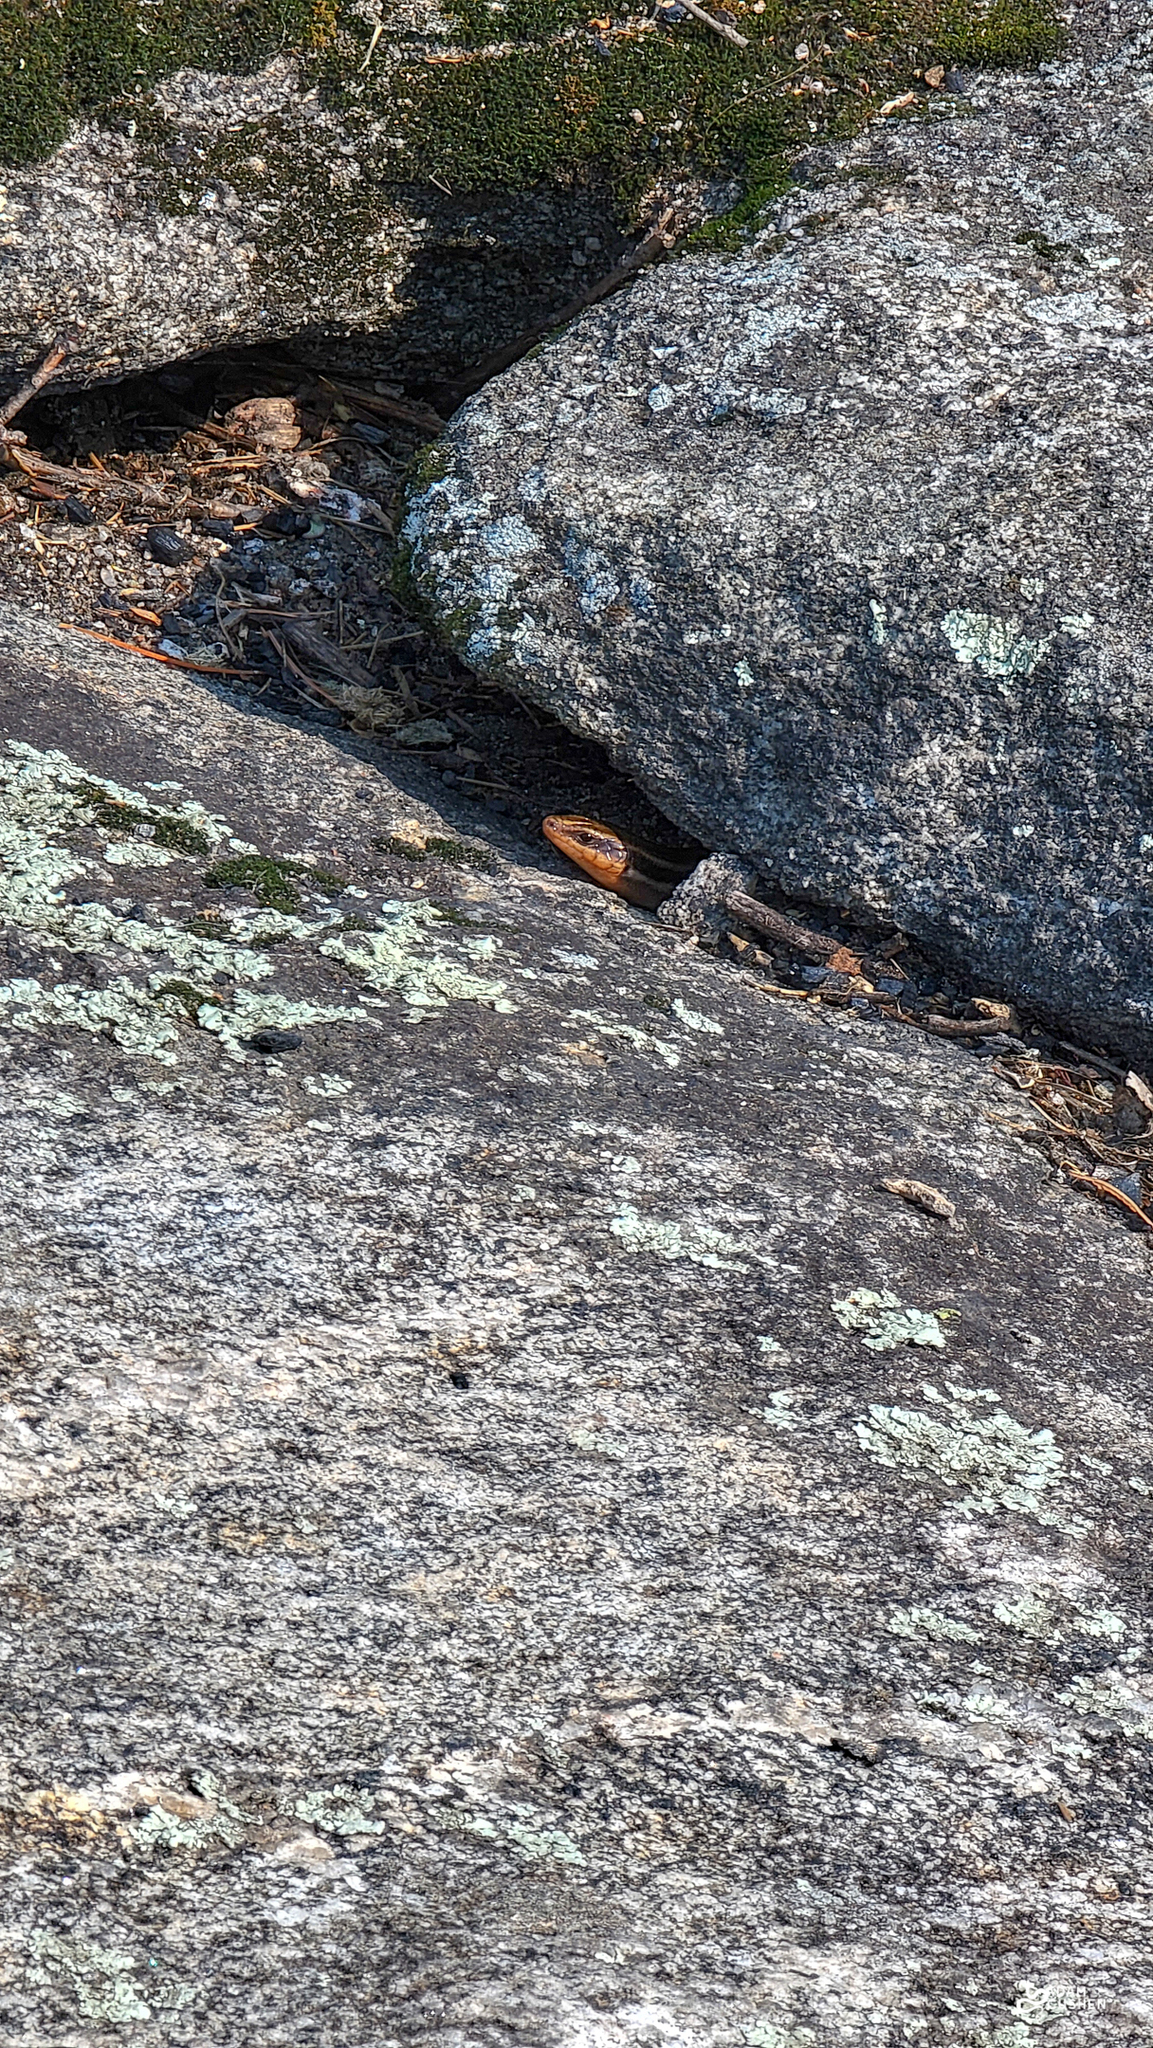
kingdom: Animalia
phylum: Chordata
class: Squamata
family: Scincidae
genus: Plestiodon
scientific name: Plestiodon fasciatus
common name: Five-lined skink
